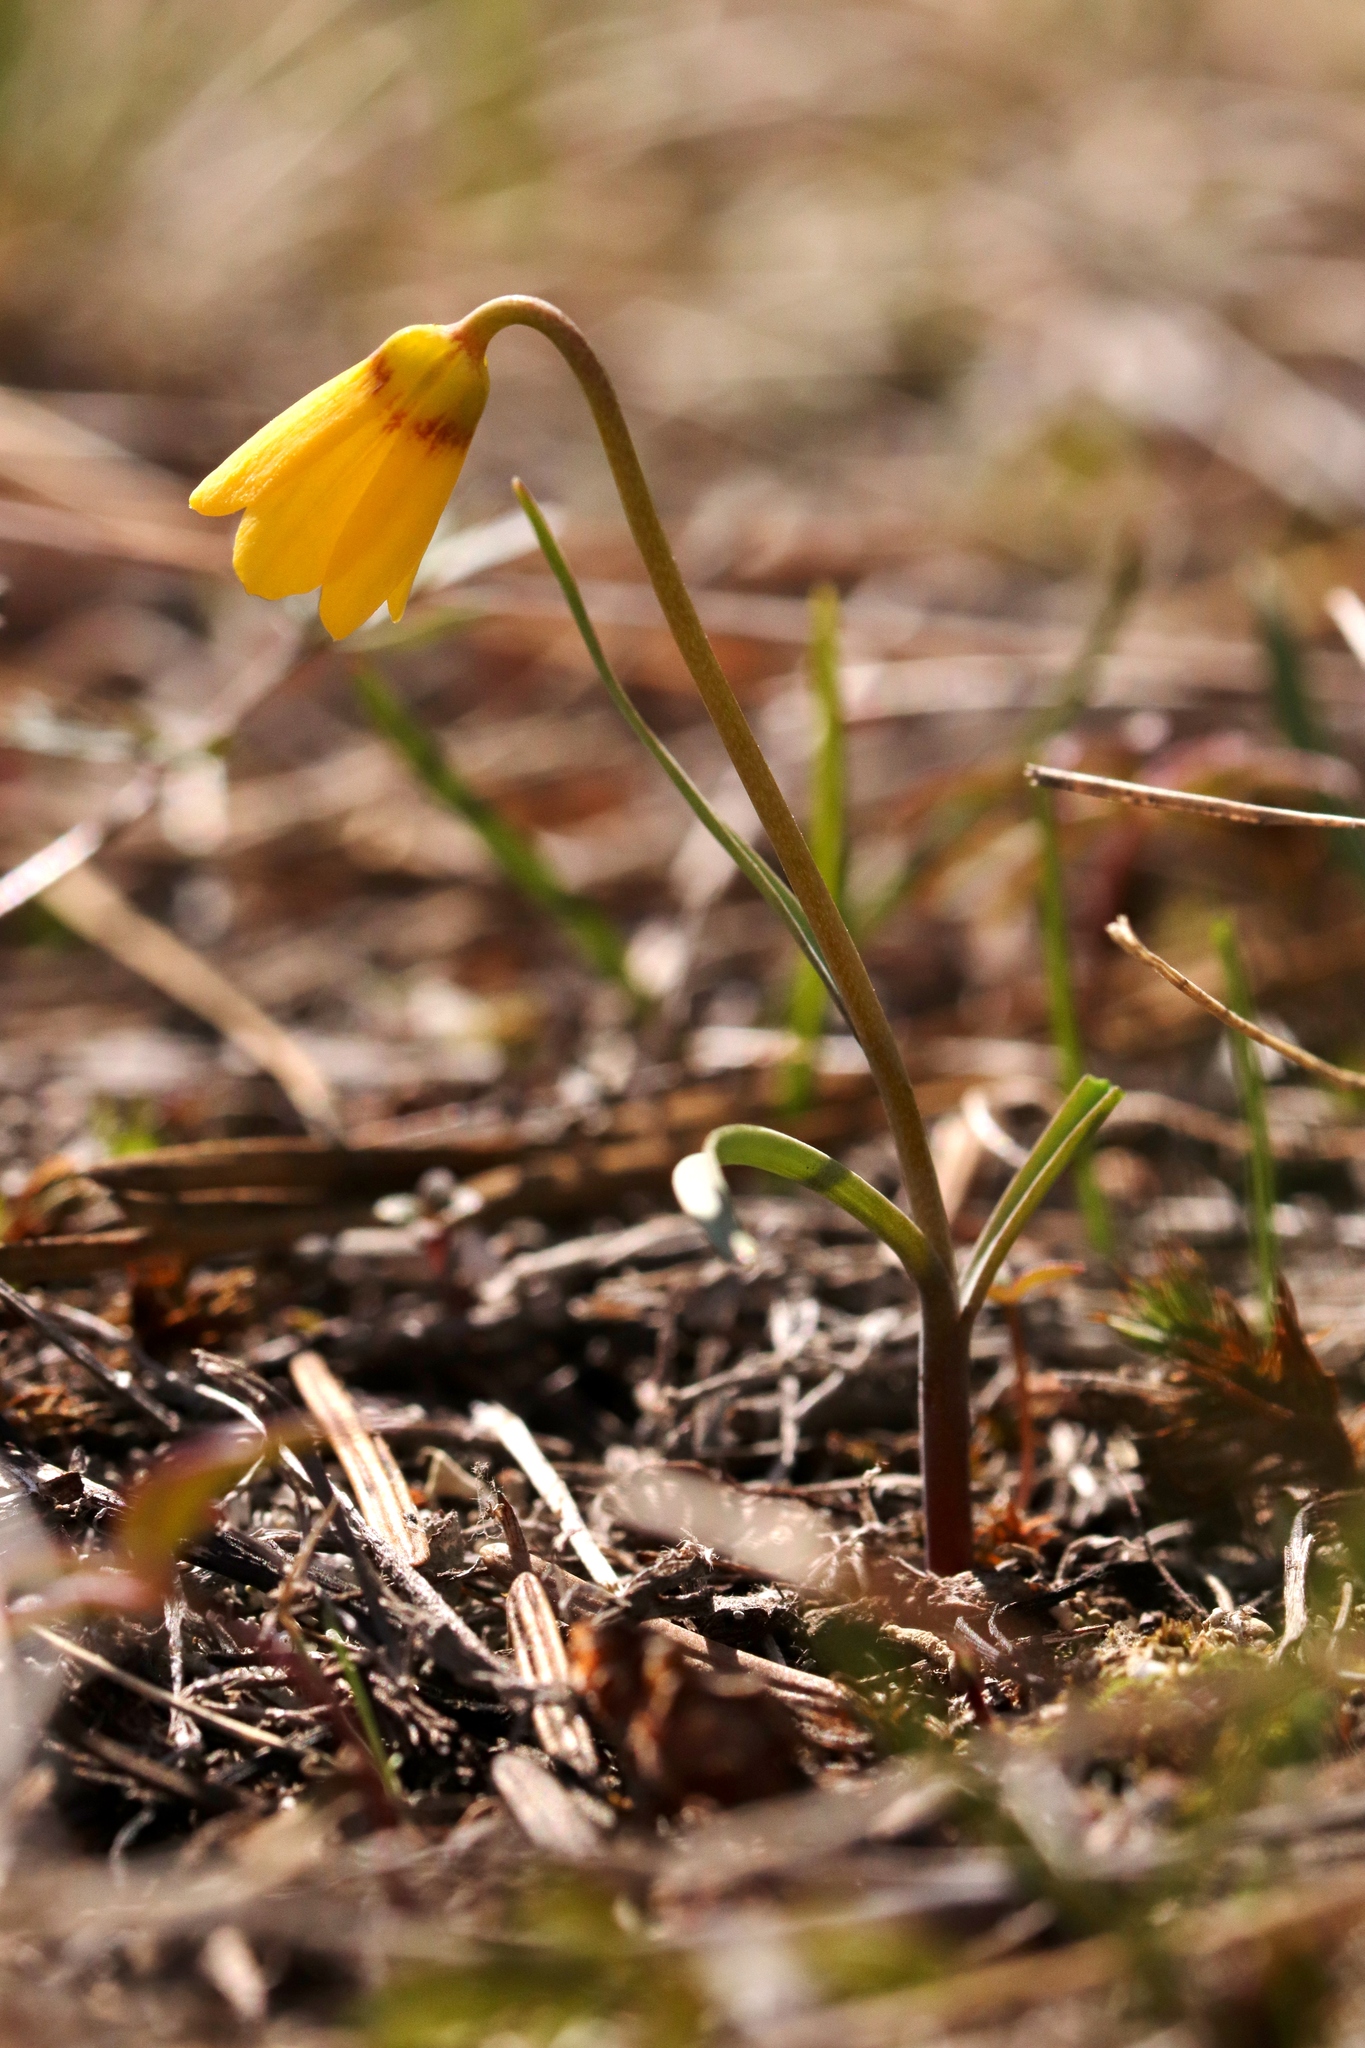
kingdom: Plantae
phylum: Tracheophyta
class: Liliopsida
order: Liliales
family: Liliaceae
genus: Fritillaria
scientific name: Fritillaria pudica
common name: Yellow fritillary
